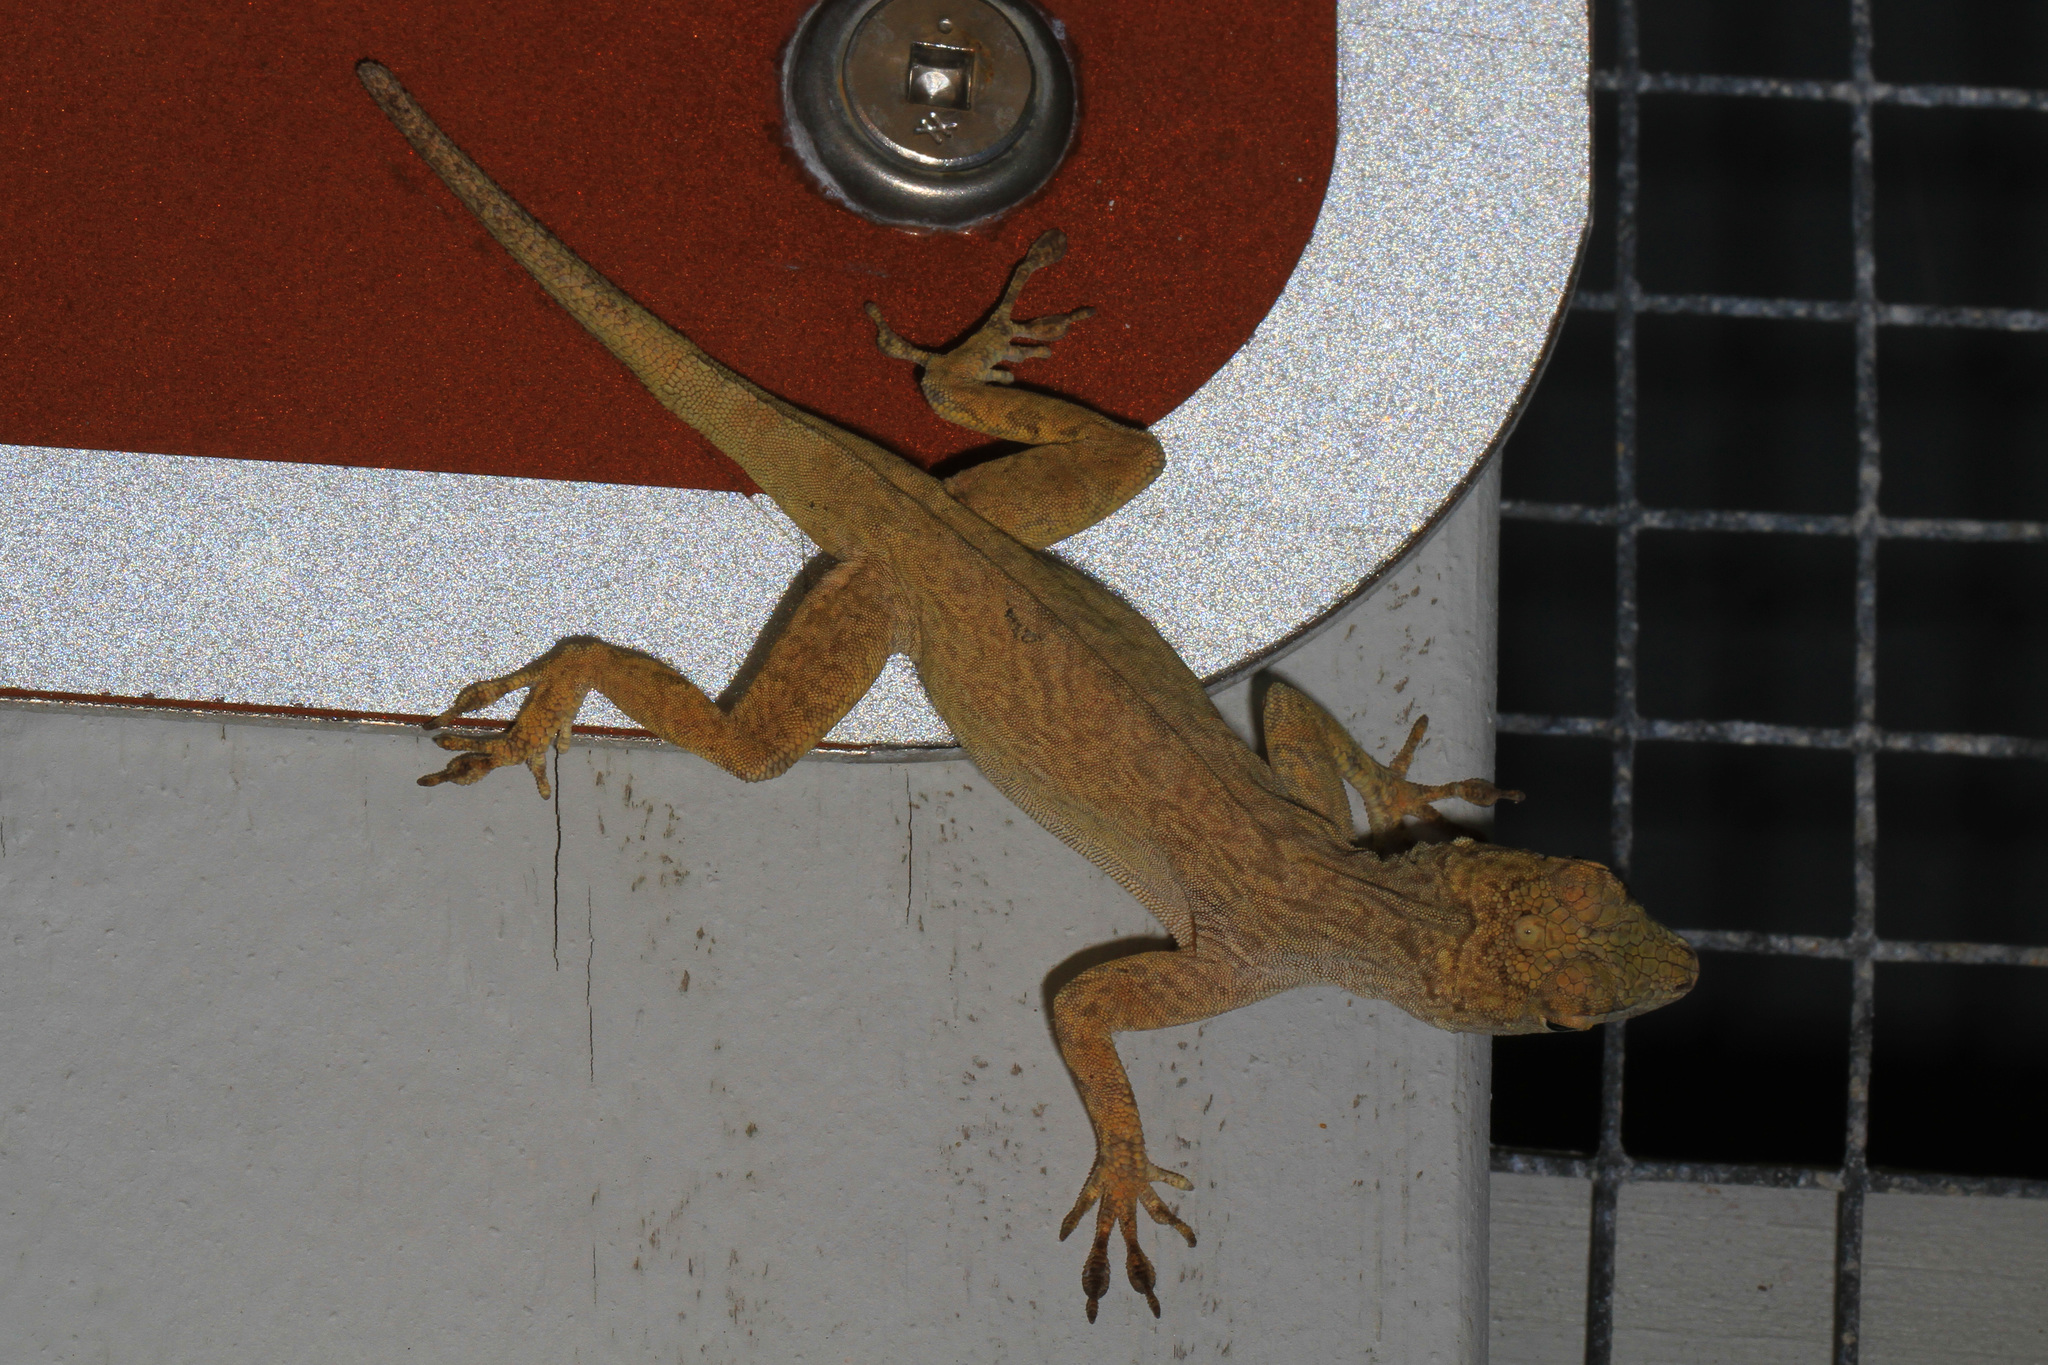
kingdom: Animalia
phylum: Chordata
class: Squamata
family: Dactyloidae
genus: Anolis
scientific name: Anolis distichus
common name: Bark anole
